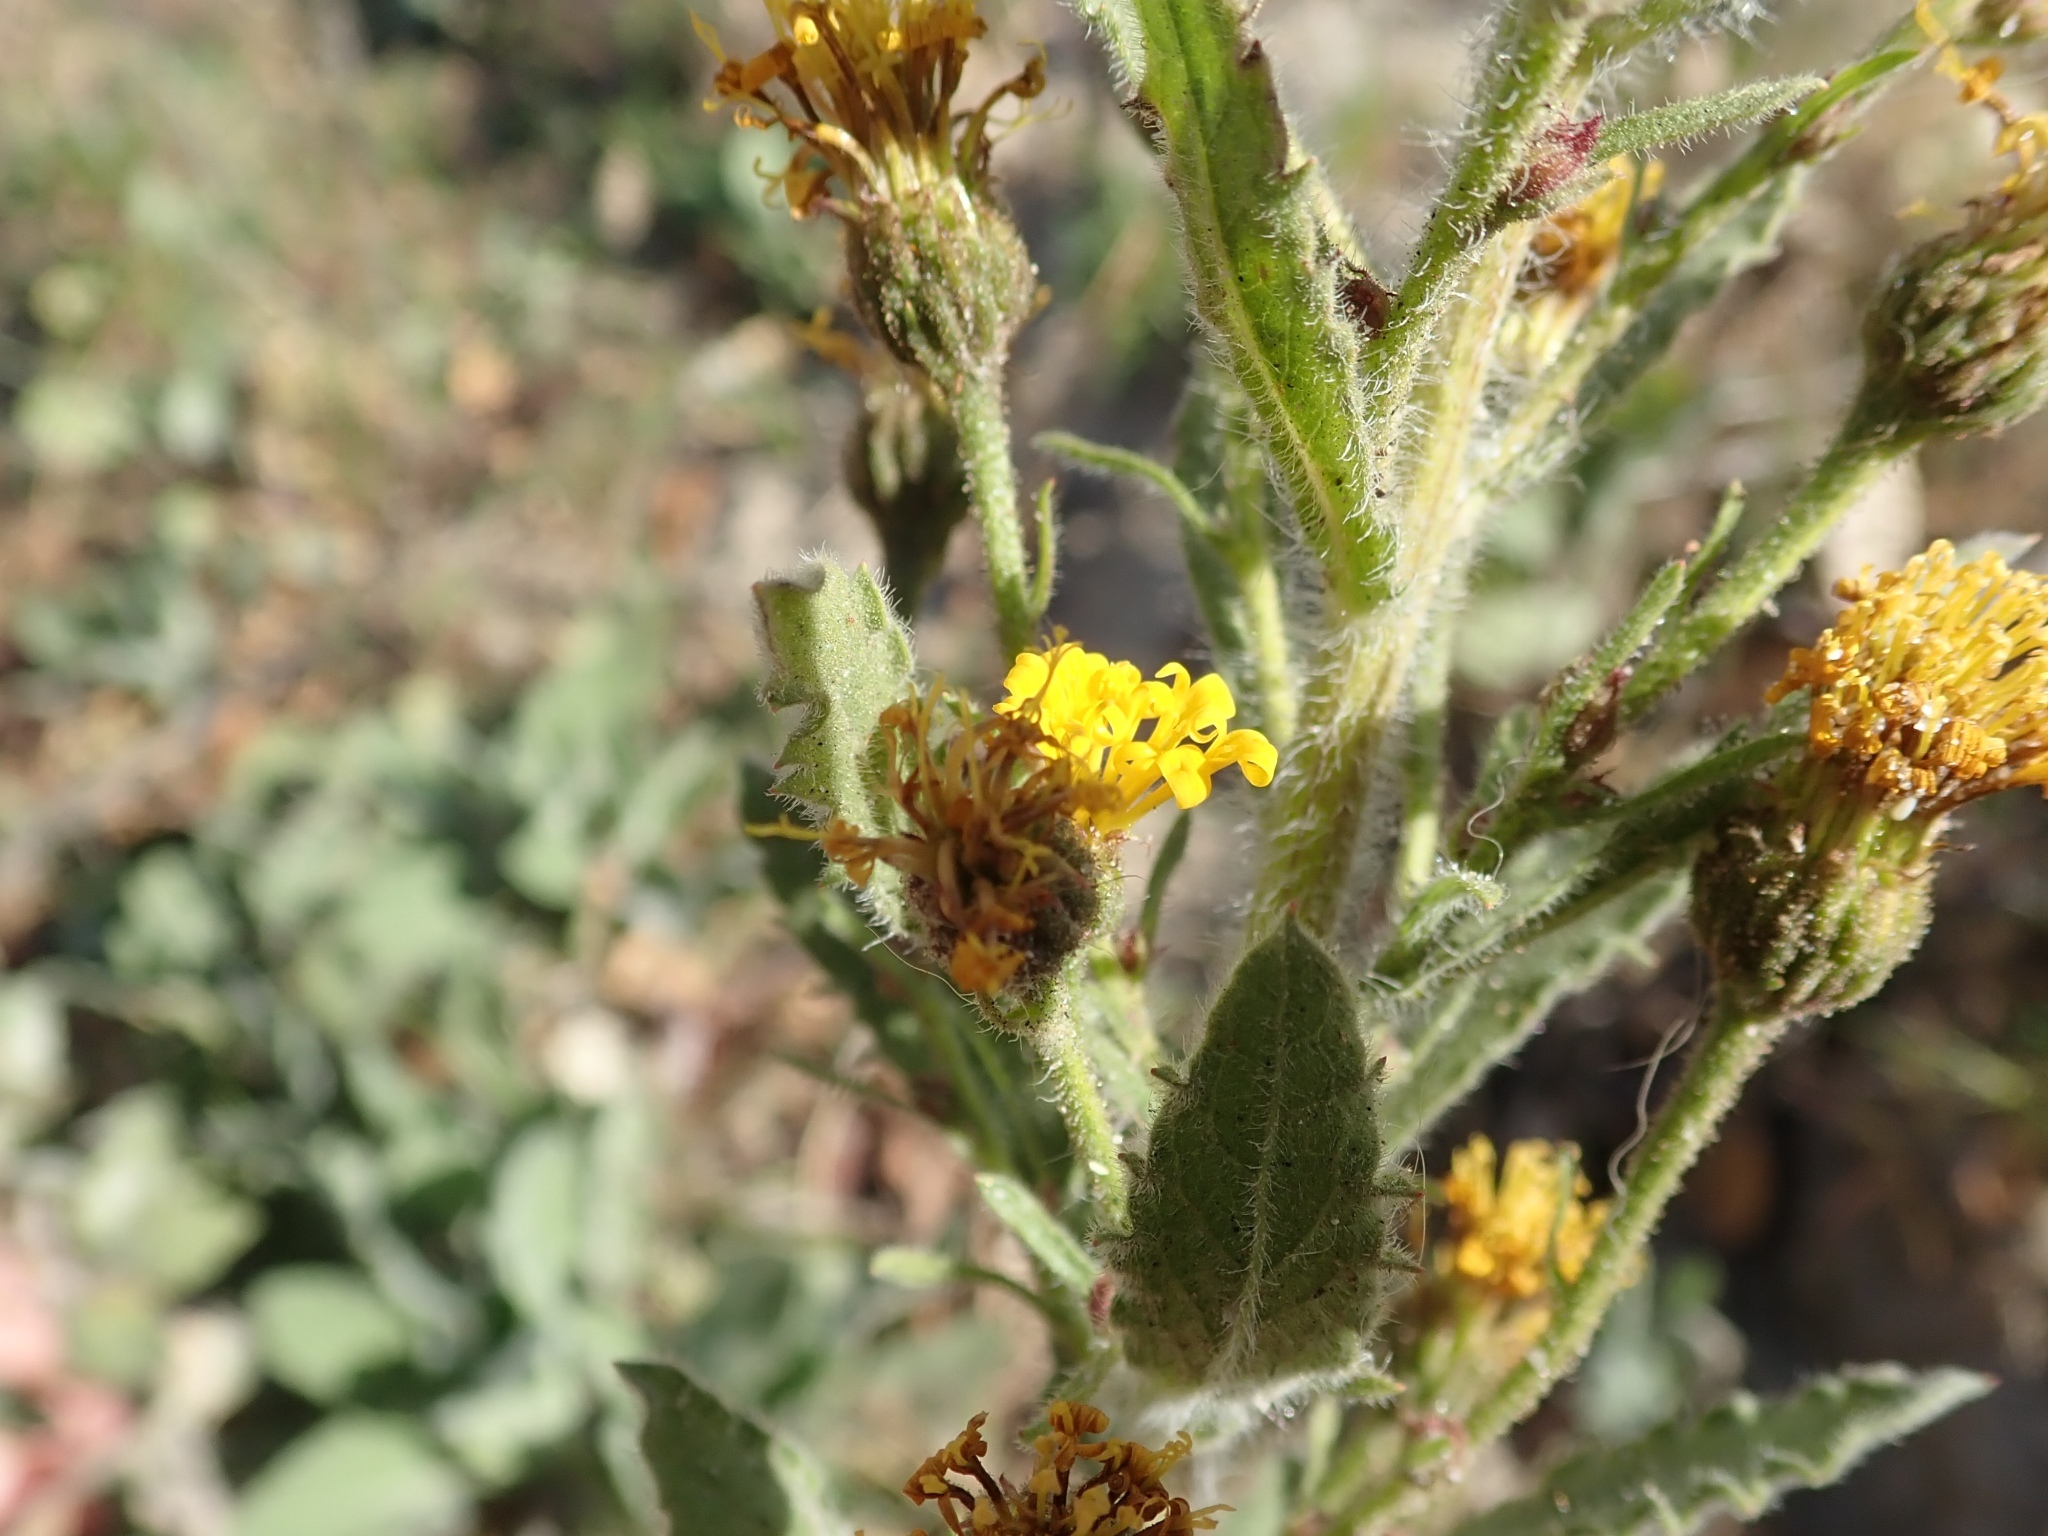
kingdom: Plantae
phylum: Tracheophyta
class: Magnoliopsida
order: Asterales
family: Asteraceae
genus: Heterotheca
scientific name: Heterotheca grandiflora
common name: Telegraphweed
